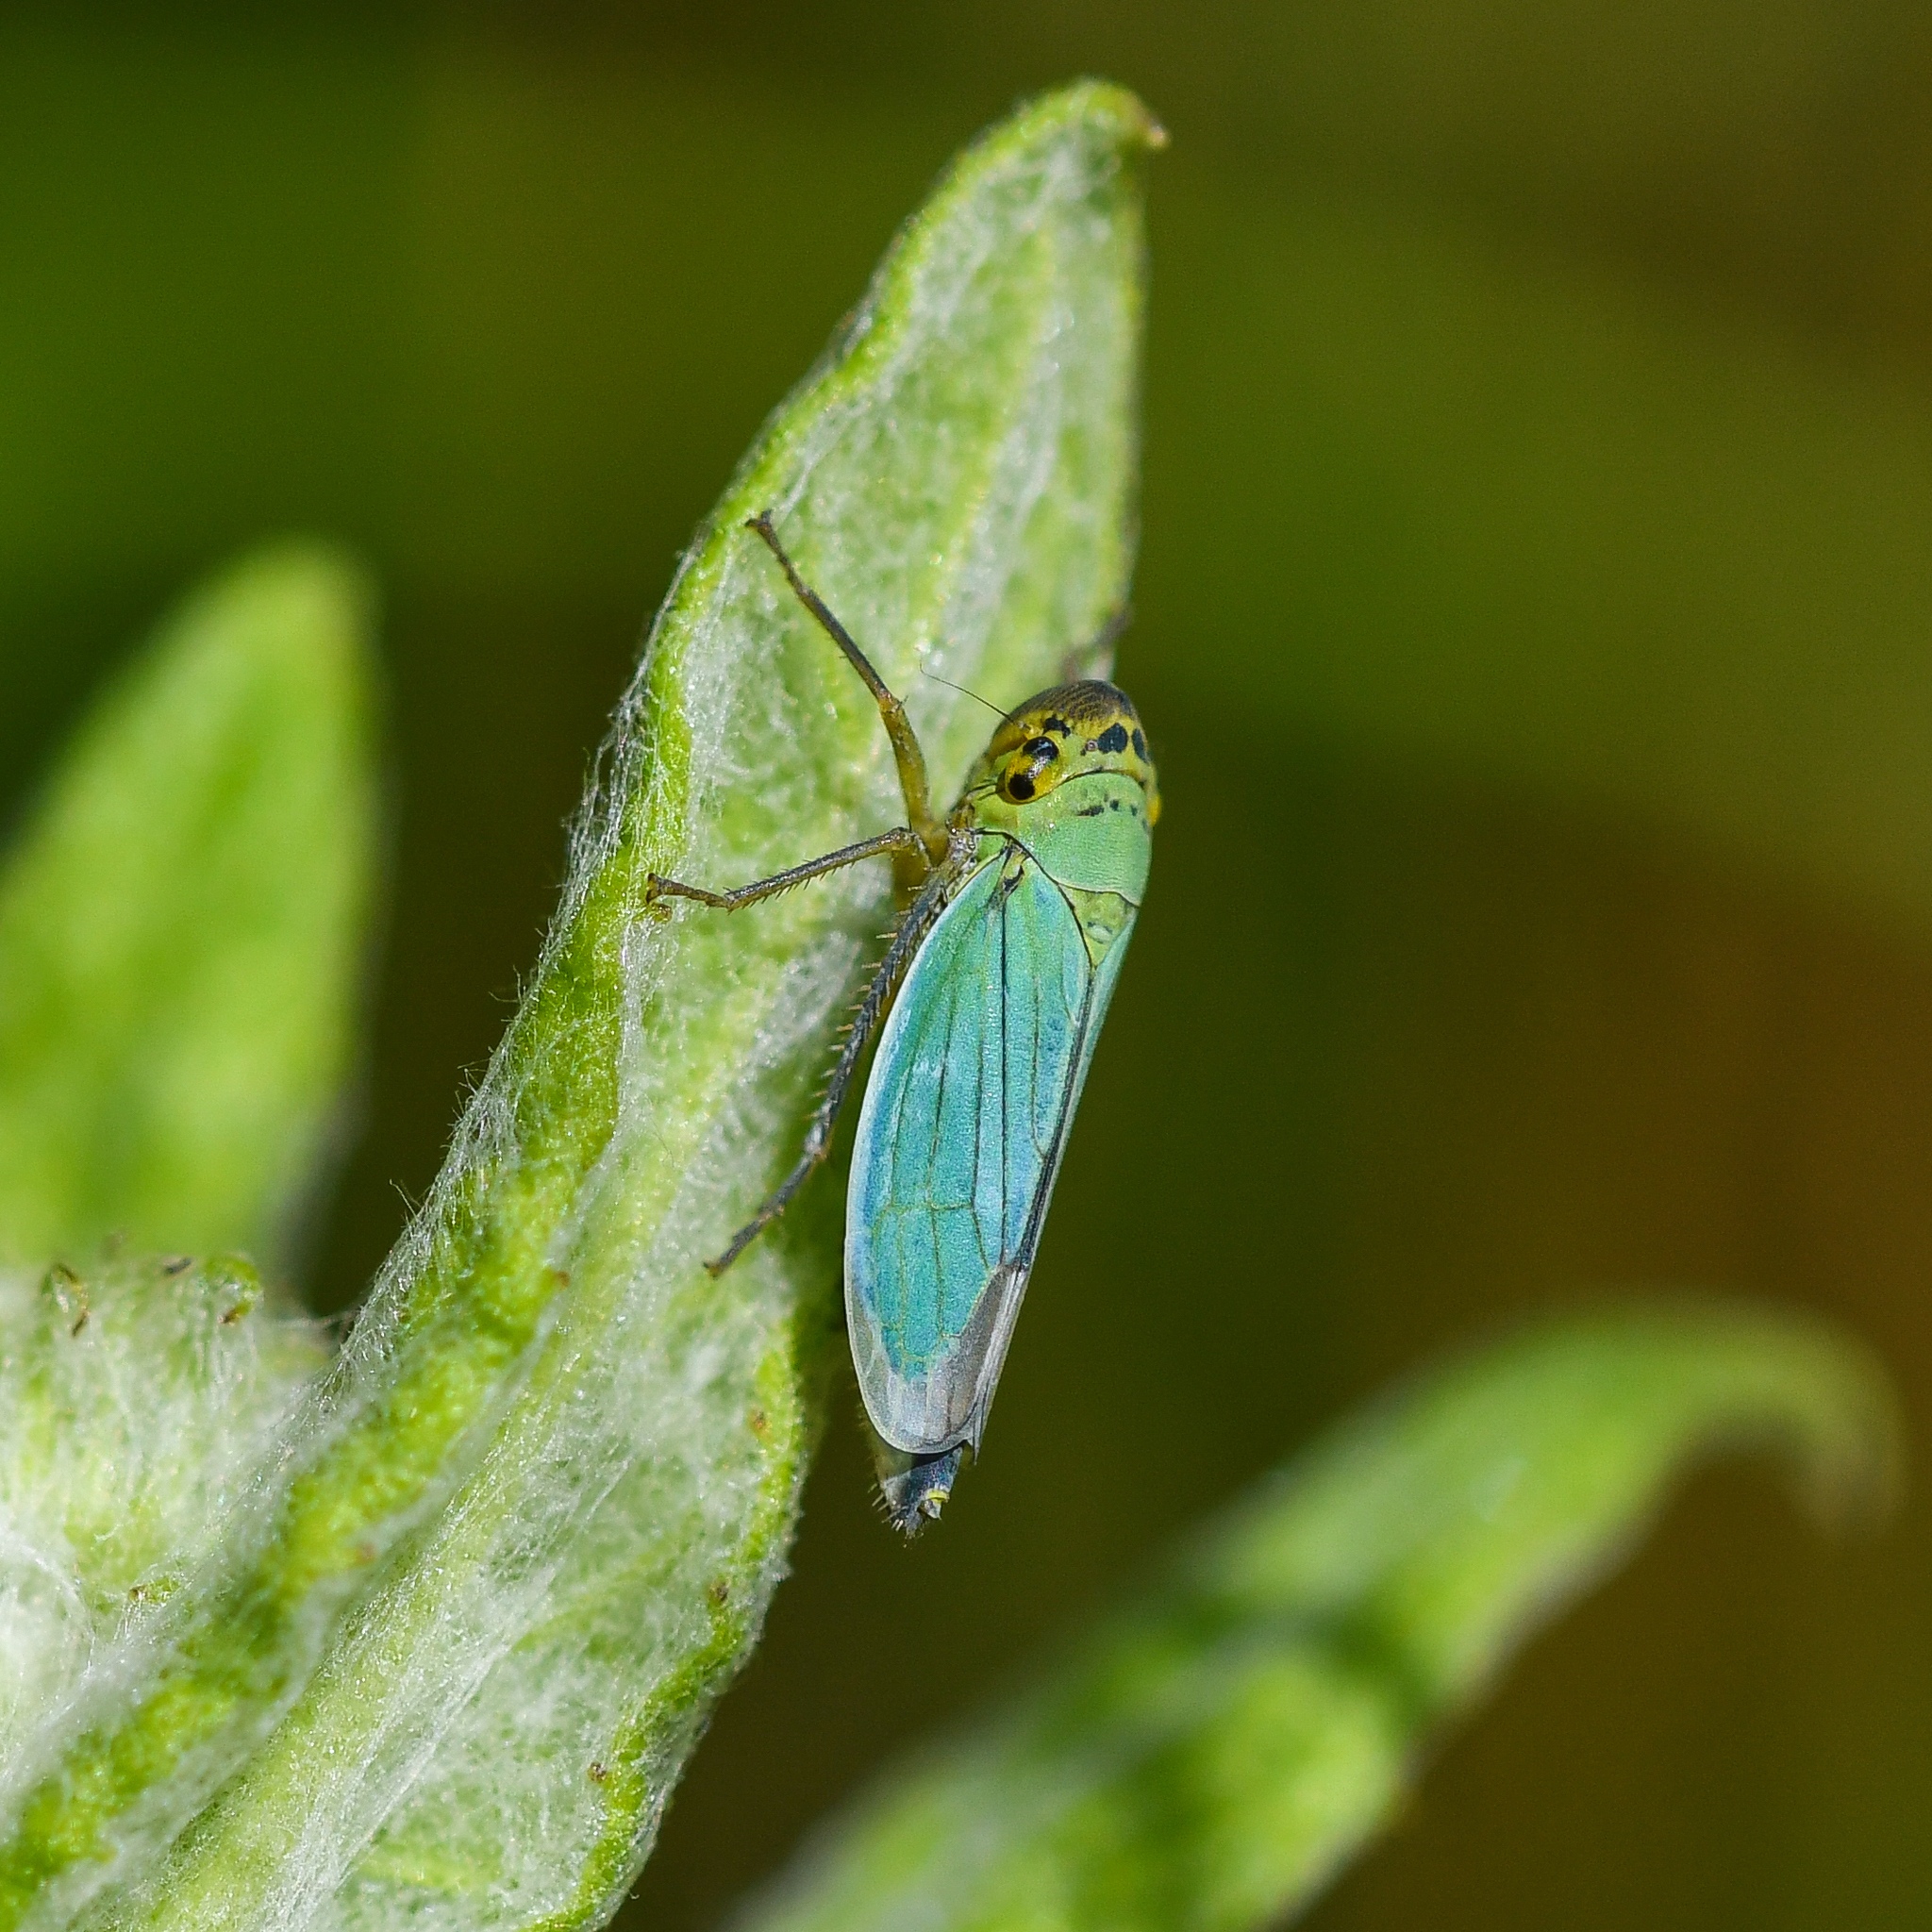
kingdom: Animalia
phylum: Arthropoda
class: Insecta
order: Hemiptera
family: Cicadellidae
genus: Cicadella
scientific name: Cicadella viridis
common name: Leafhopper
